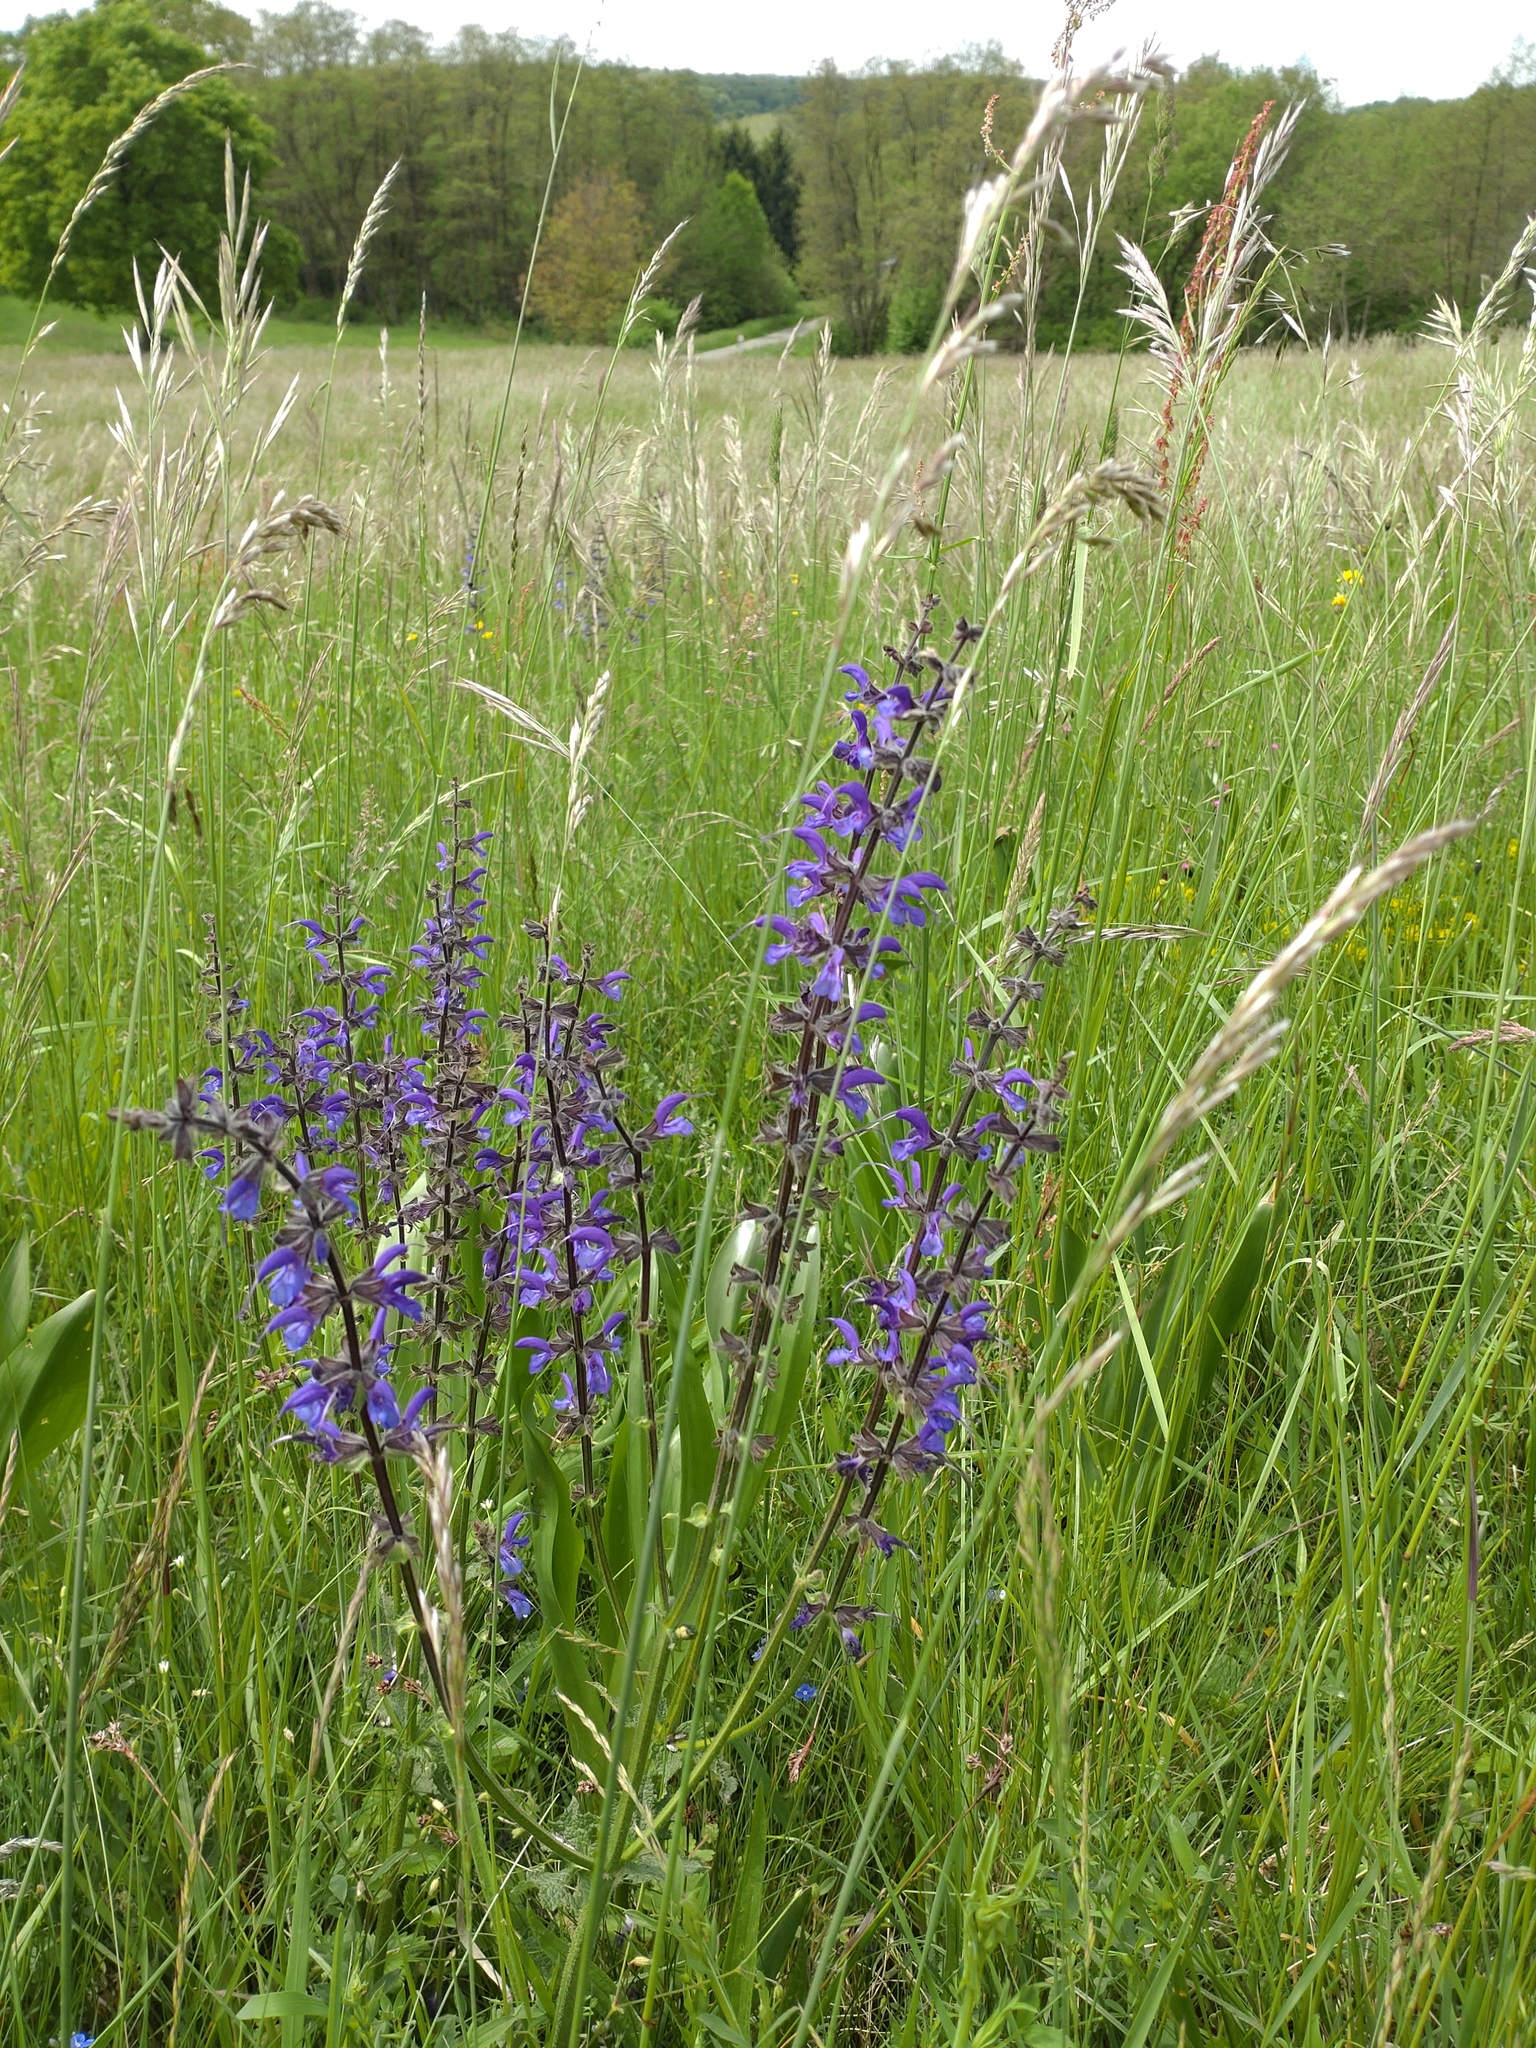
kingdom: Plantae
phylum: Tracheophyta
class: Magnoliopsida
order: Lamiales
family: Lamiaceae
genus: Salvia
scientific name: Salvia pratensis
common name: Meadow sage
